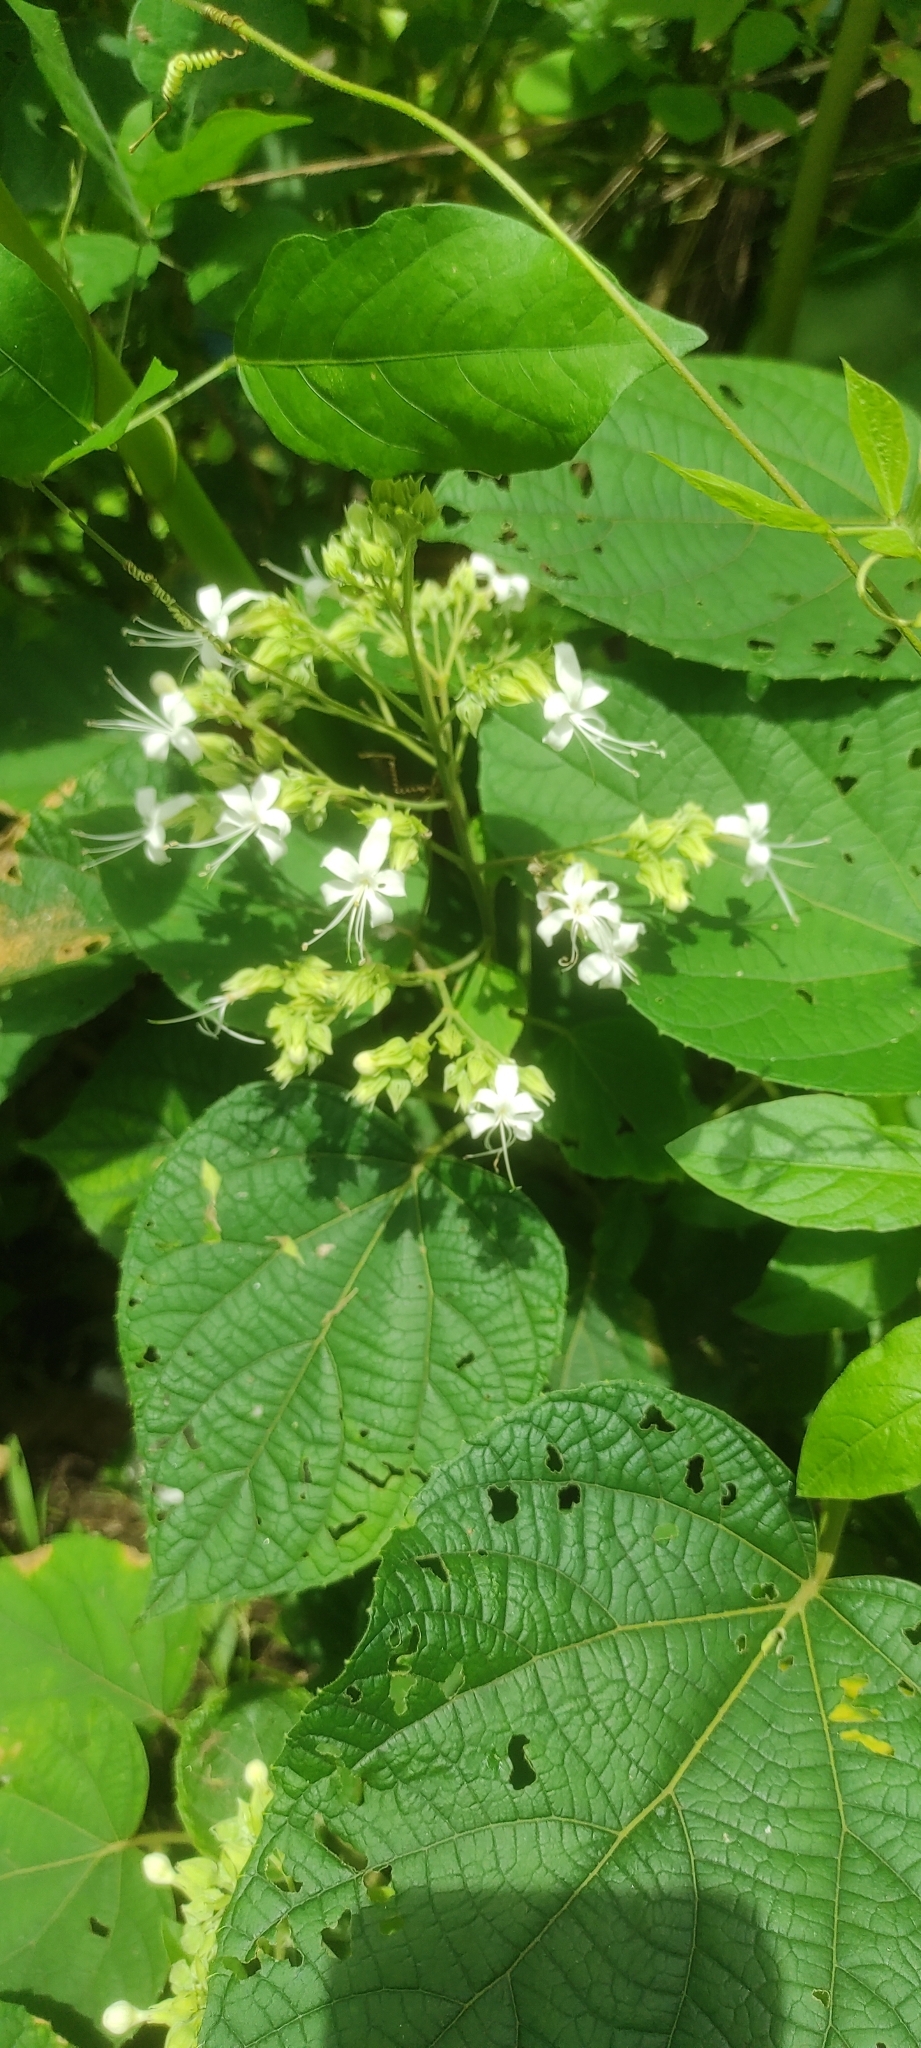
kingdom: Plantae
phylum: Tracheophyta
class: Magnoliopsida
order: Lamiales
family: Lamiaceae
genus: Clerodendrum
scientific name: Clerodendrum infortunatum
